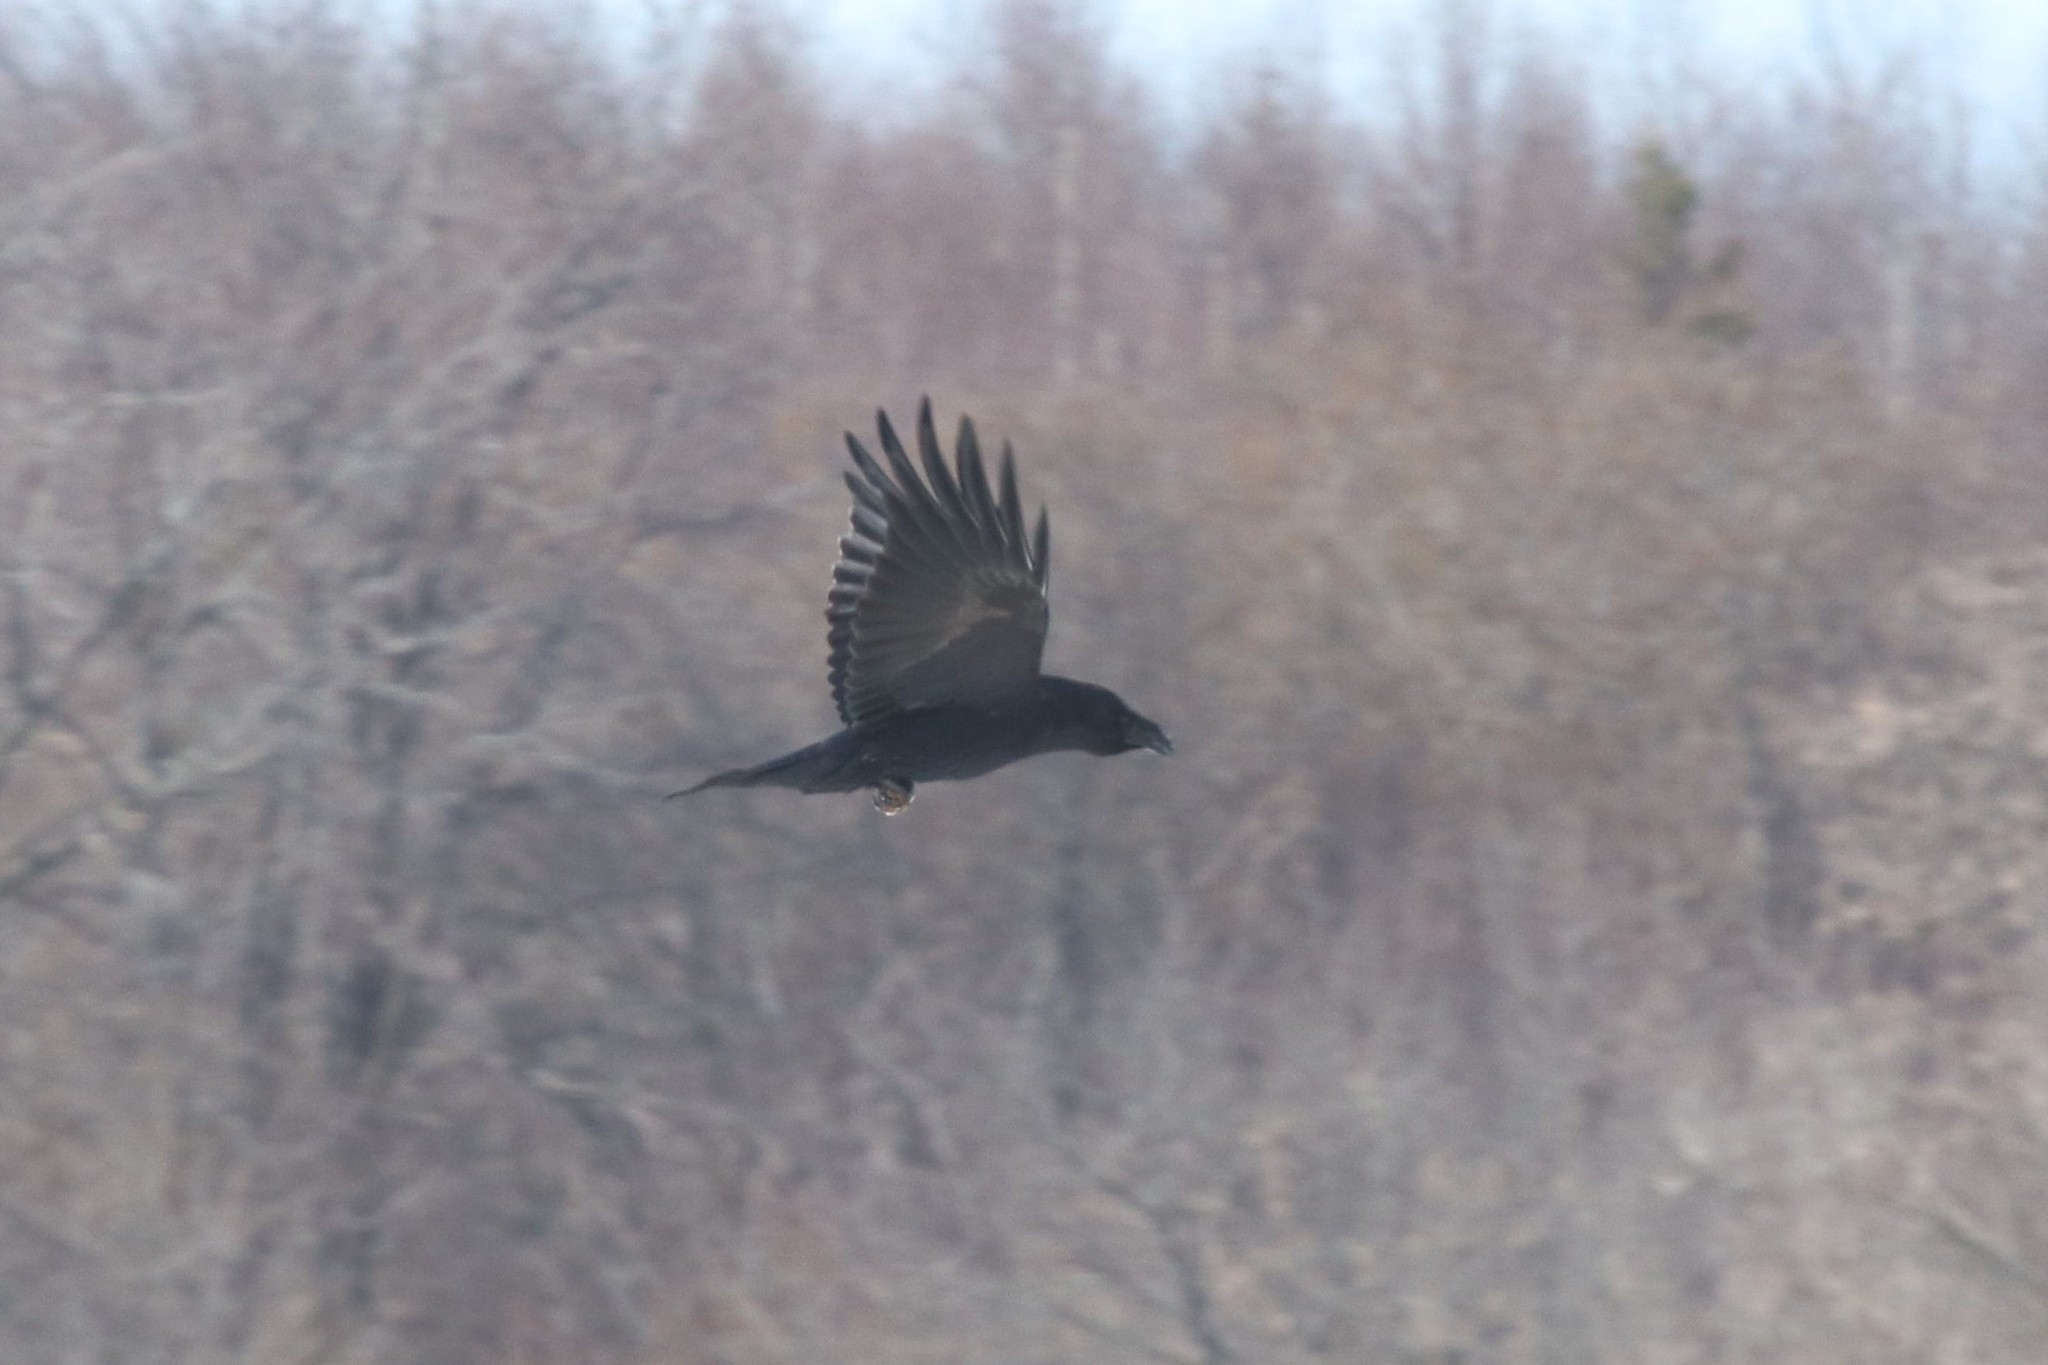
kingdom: Animalia
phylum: Chordata
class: Aves
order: Passeriformes
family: Corvidae
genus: Corvus
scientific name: Corvus corax
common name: Common raven
